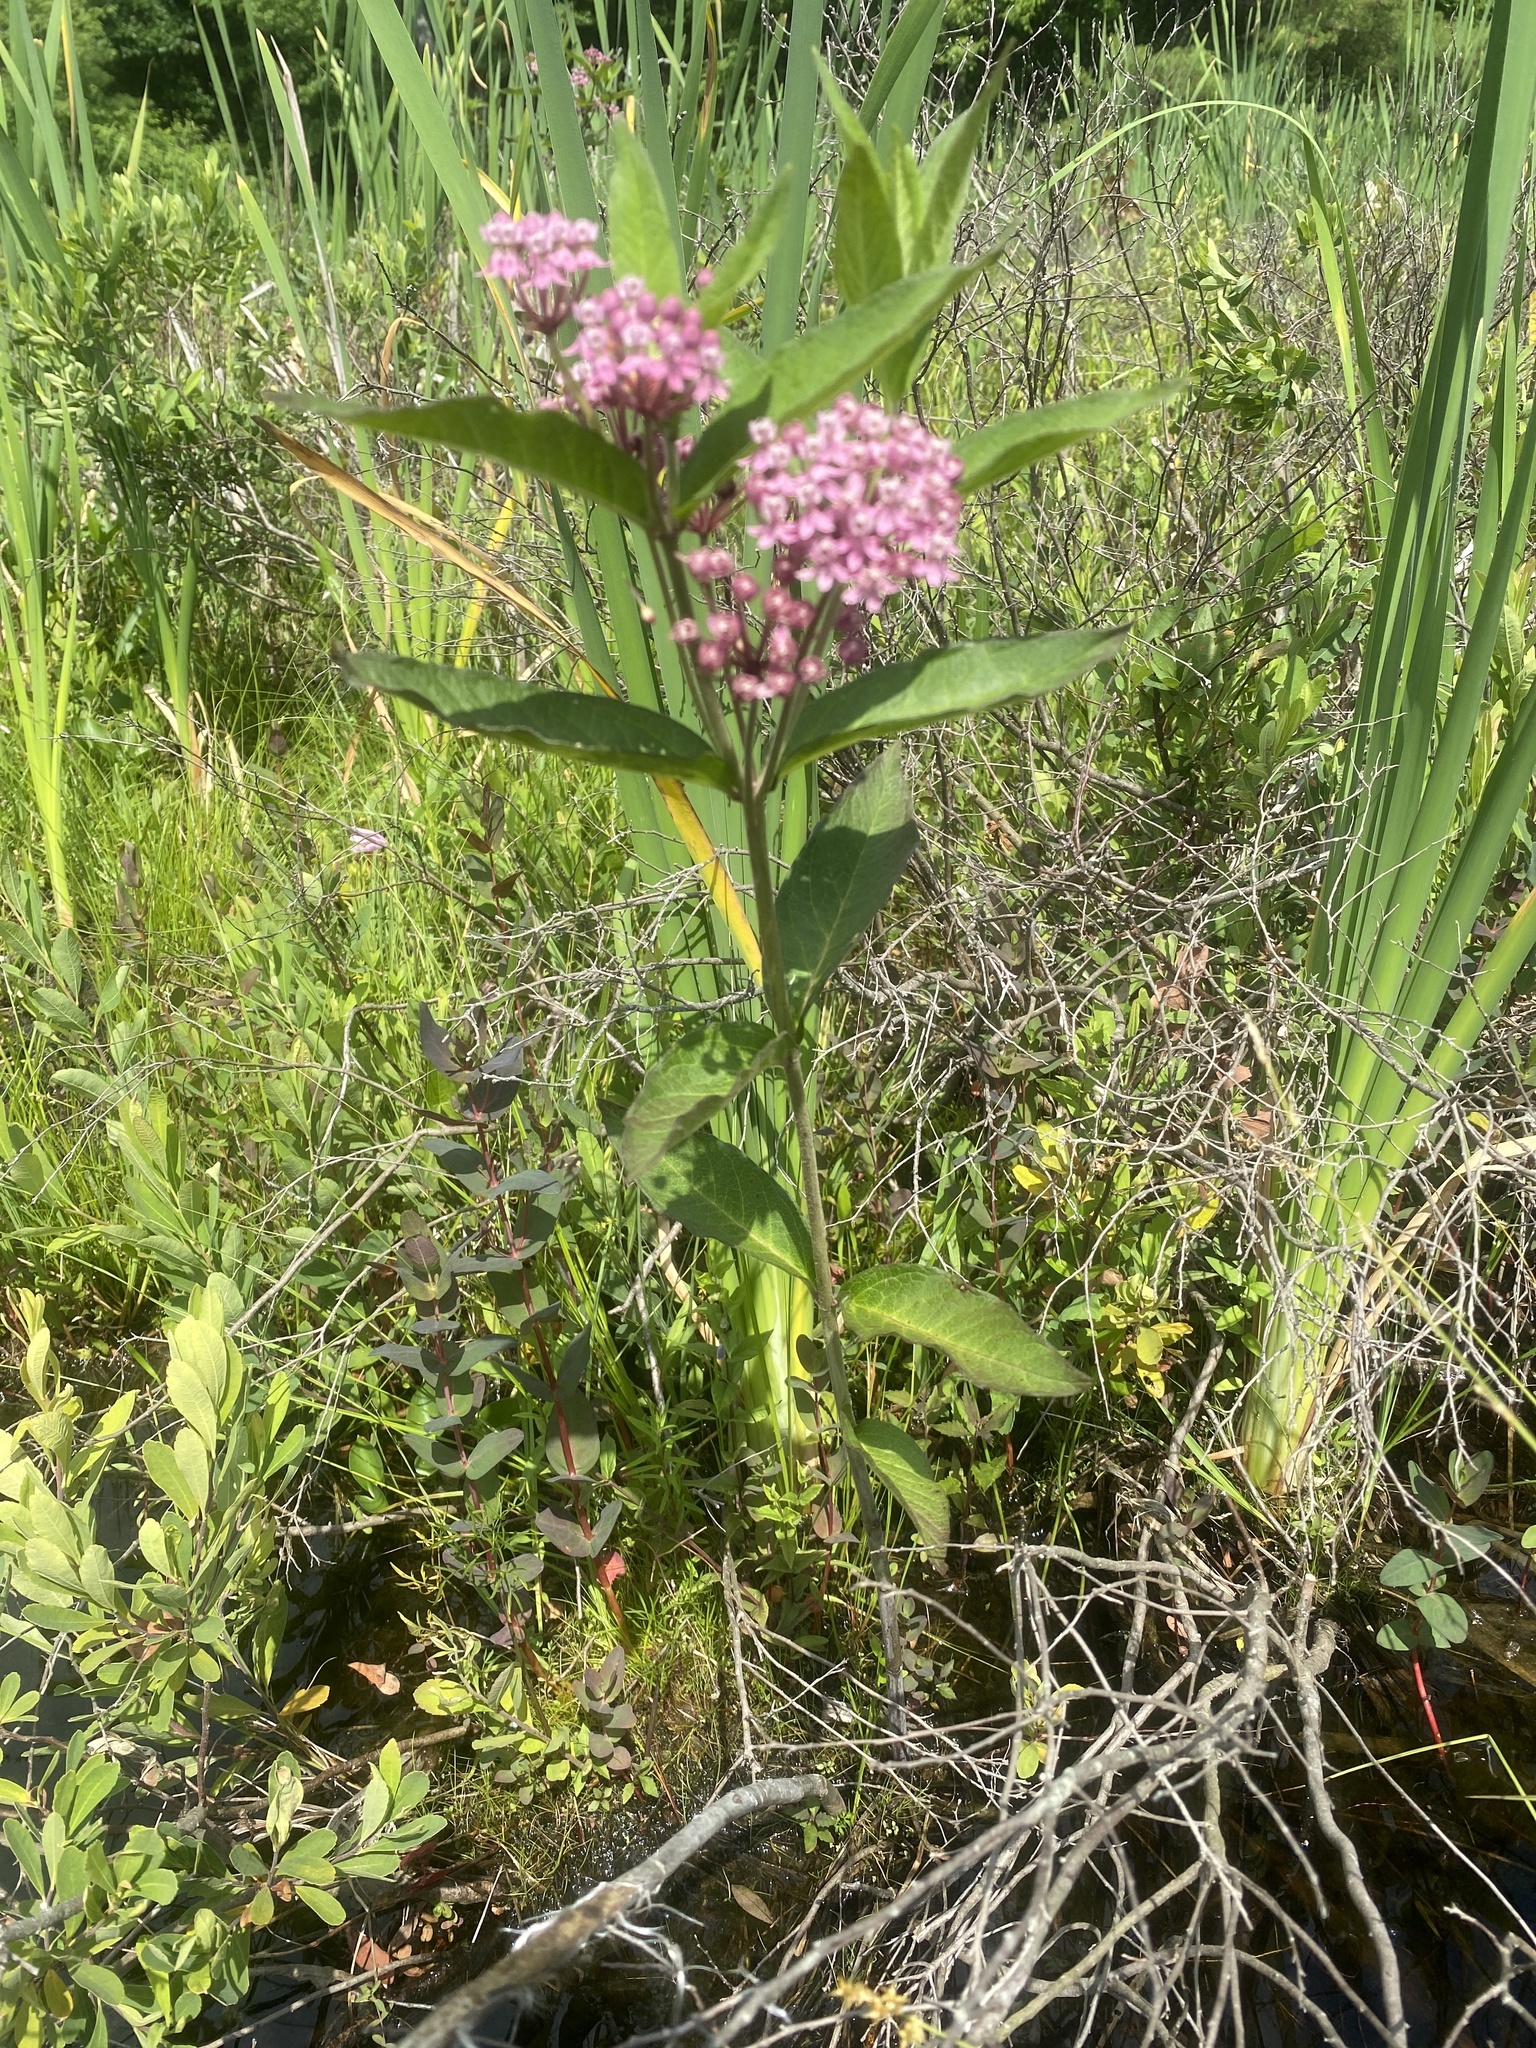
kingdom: Plantae
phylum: Tracheophyta
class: Magnoliopsida
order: Gentianales
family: Apocynaceae
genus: Asclepias
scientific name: Asclepias incarnata
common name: Swamp milkweed
